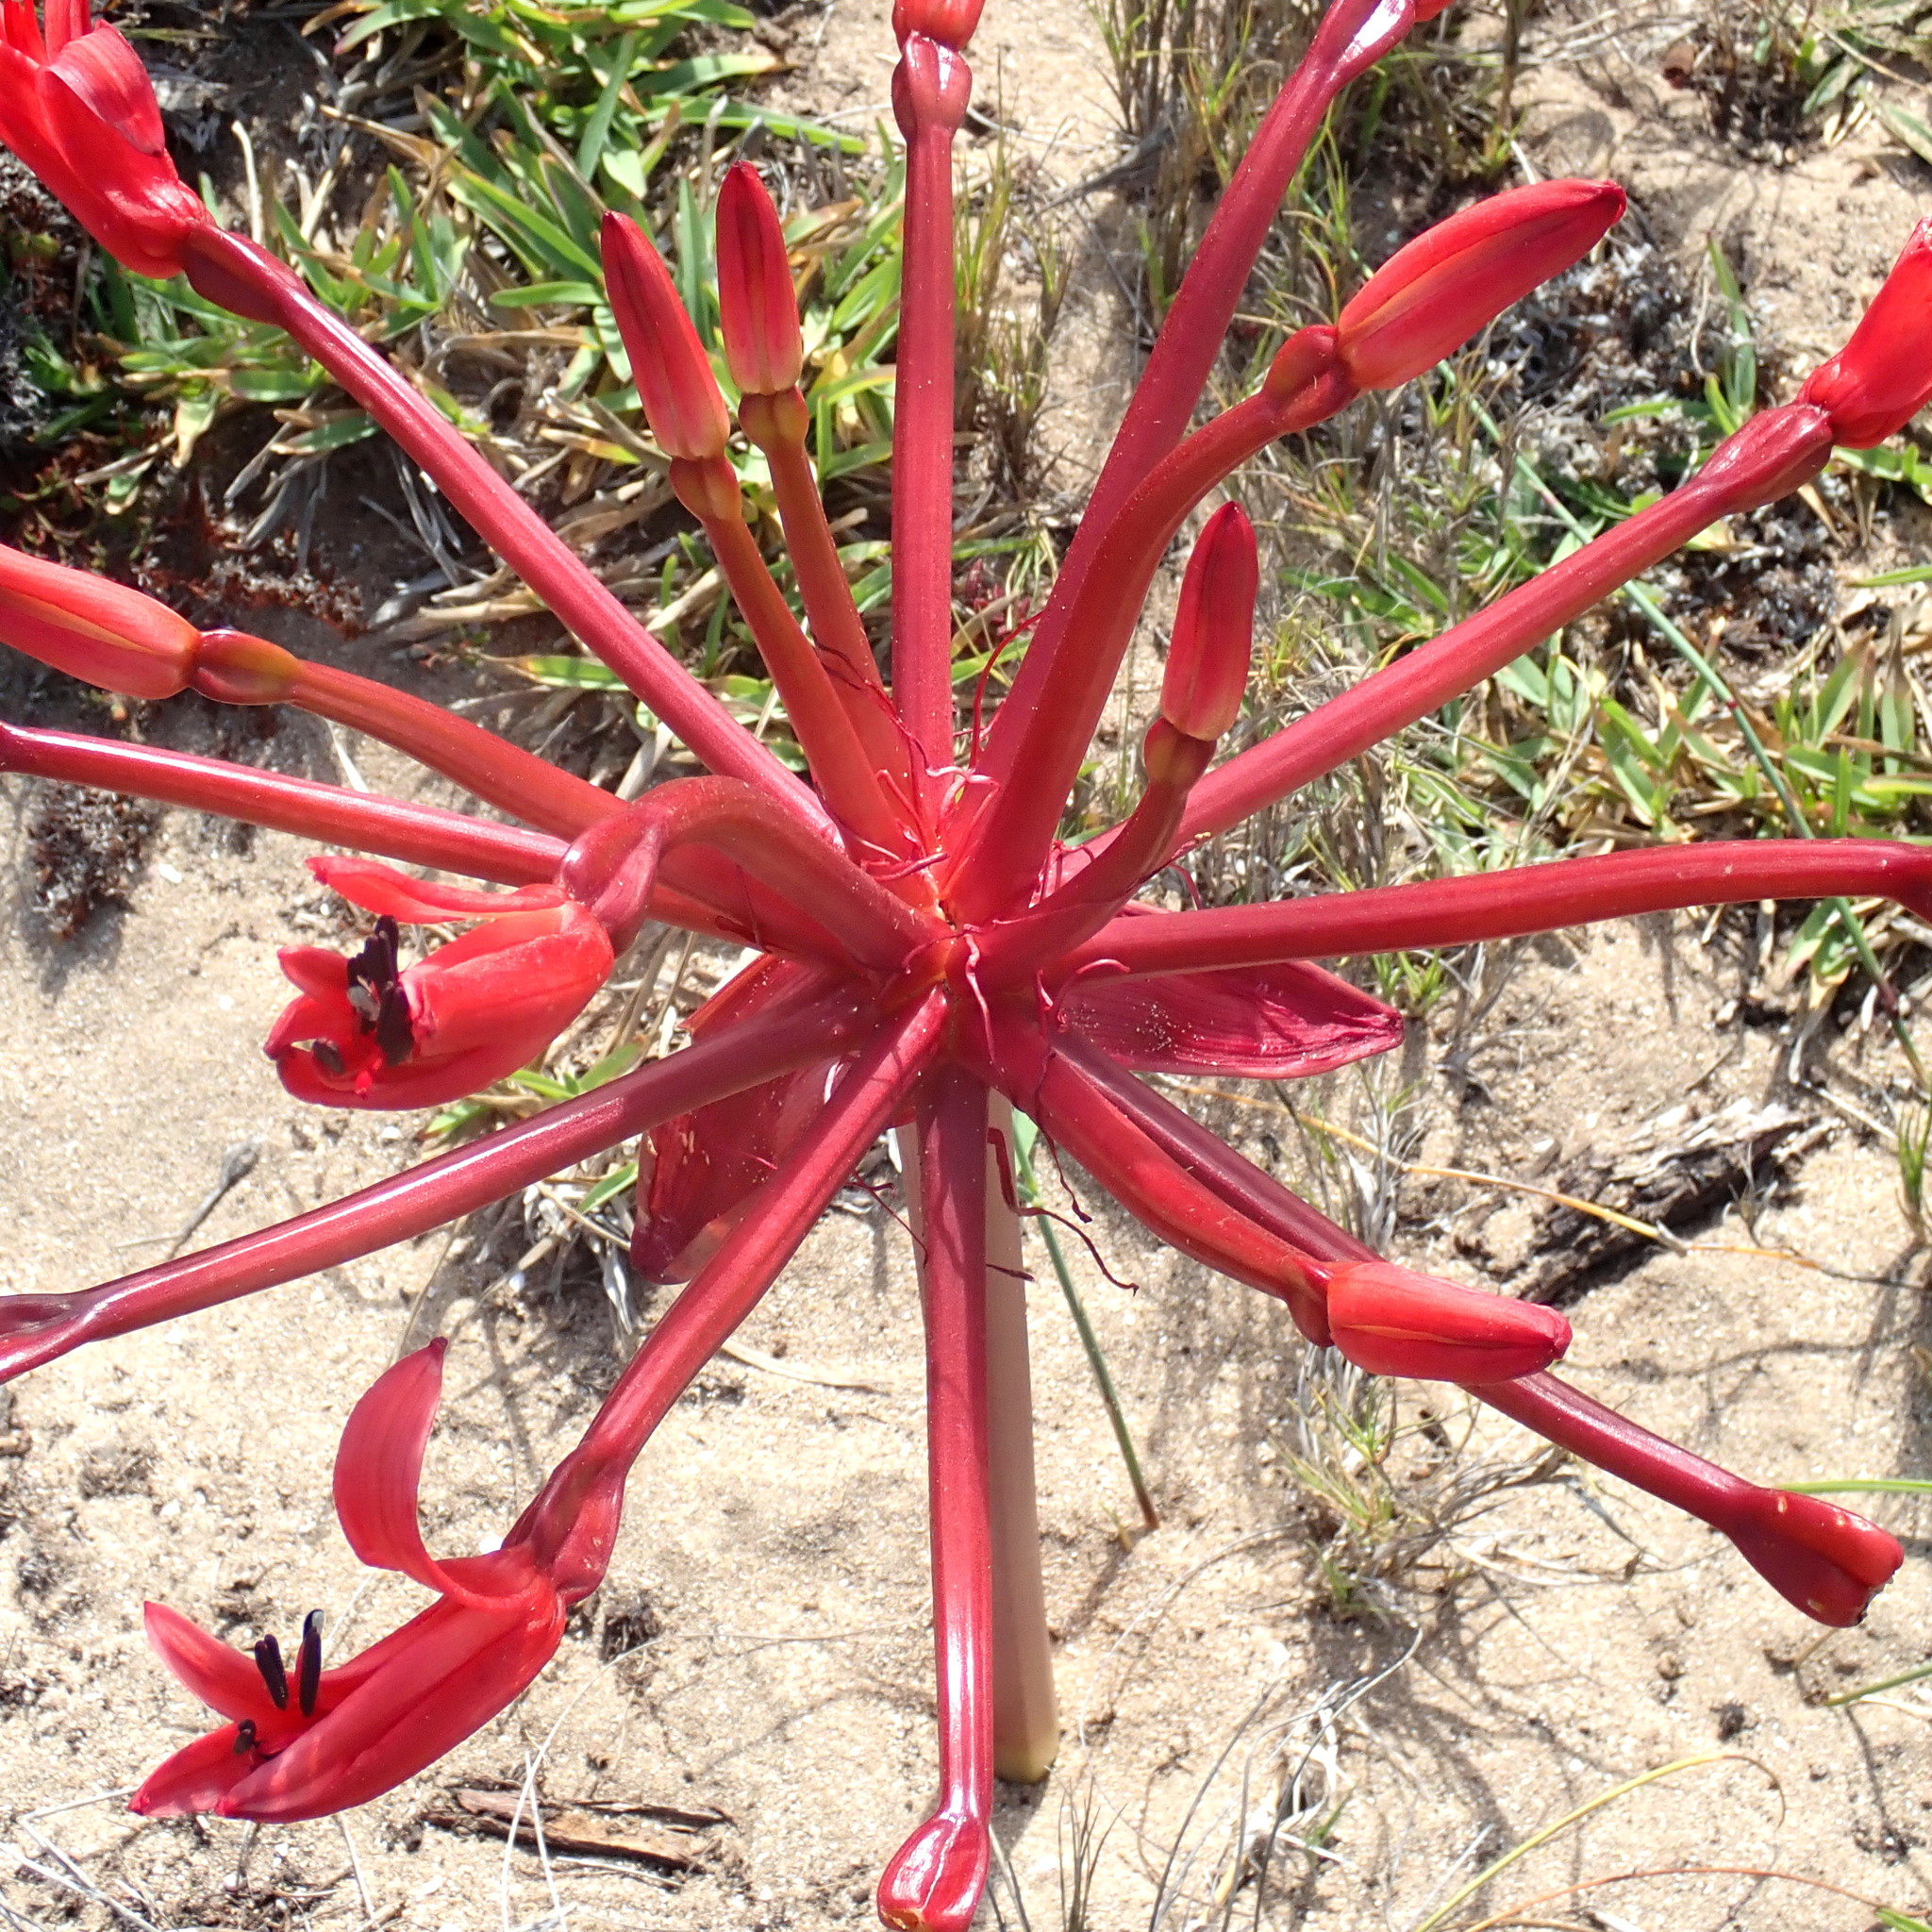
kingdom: Plantae
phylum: Tracheophyta
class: Liliopsida
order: Asparagales
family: Amaryllidaceae
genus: Brunsvigia
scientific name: Brunsvigia orientalis
